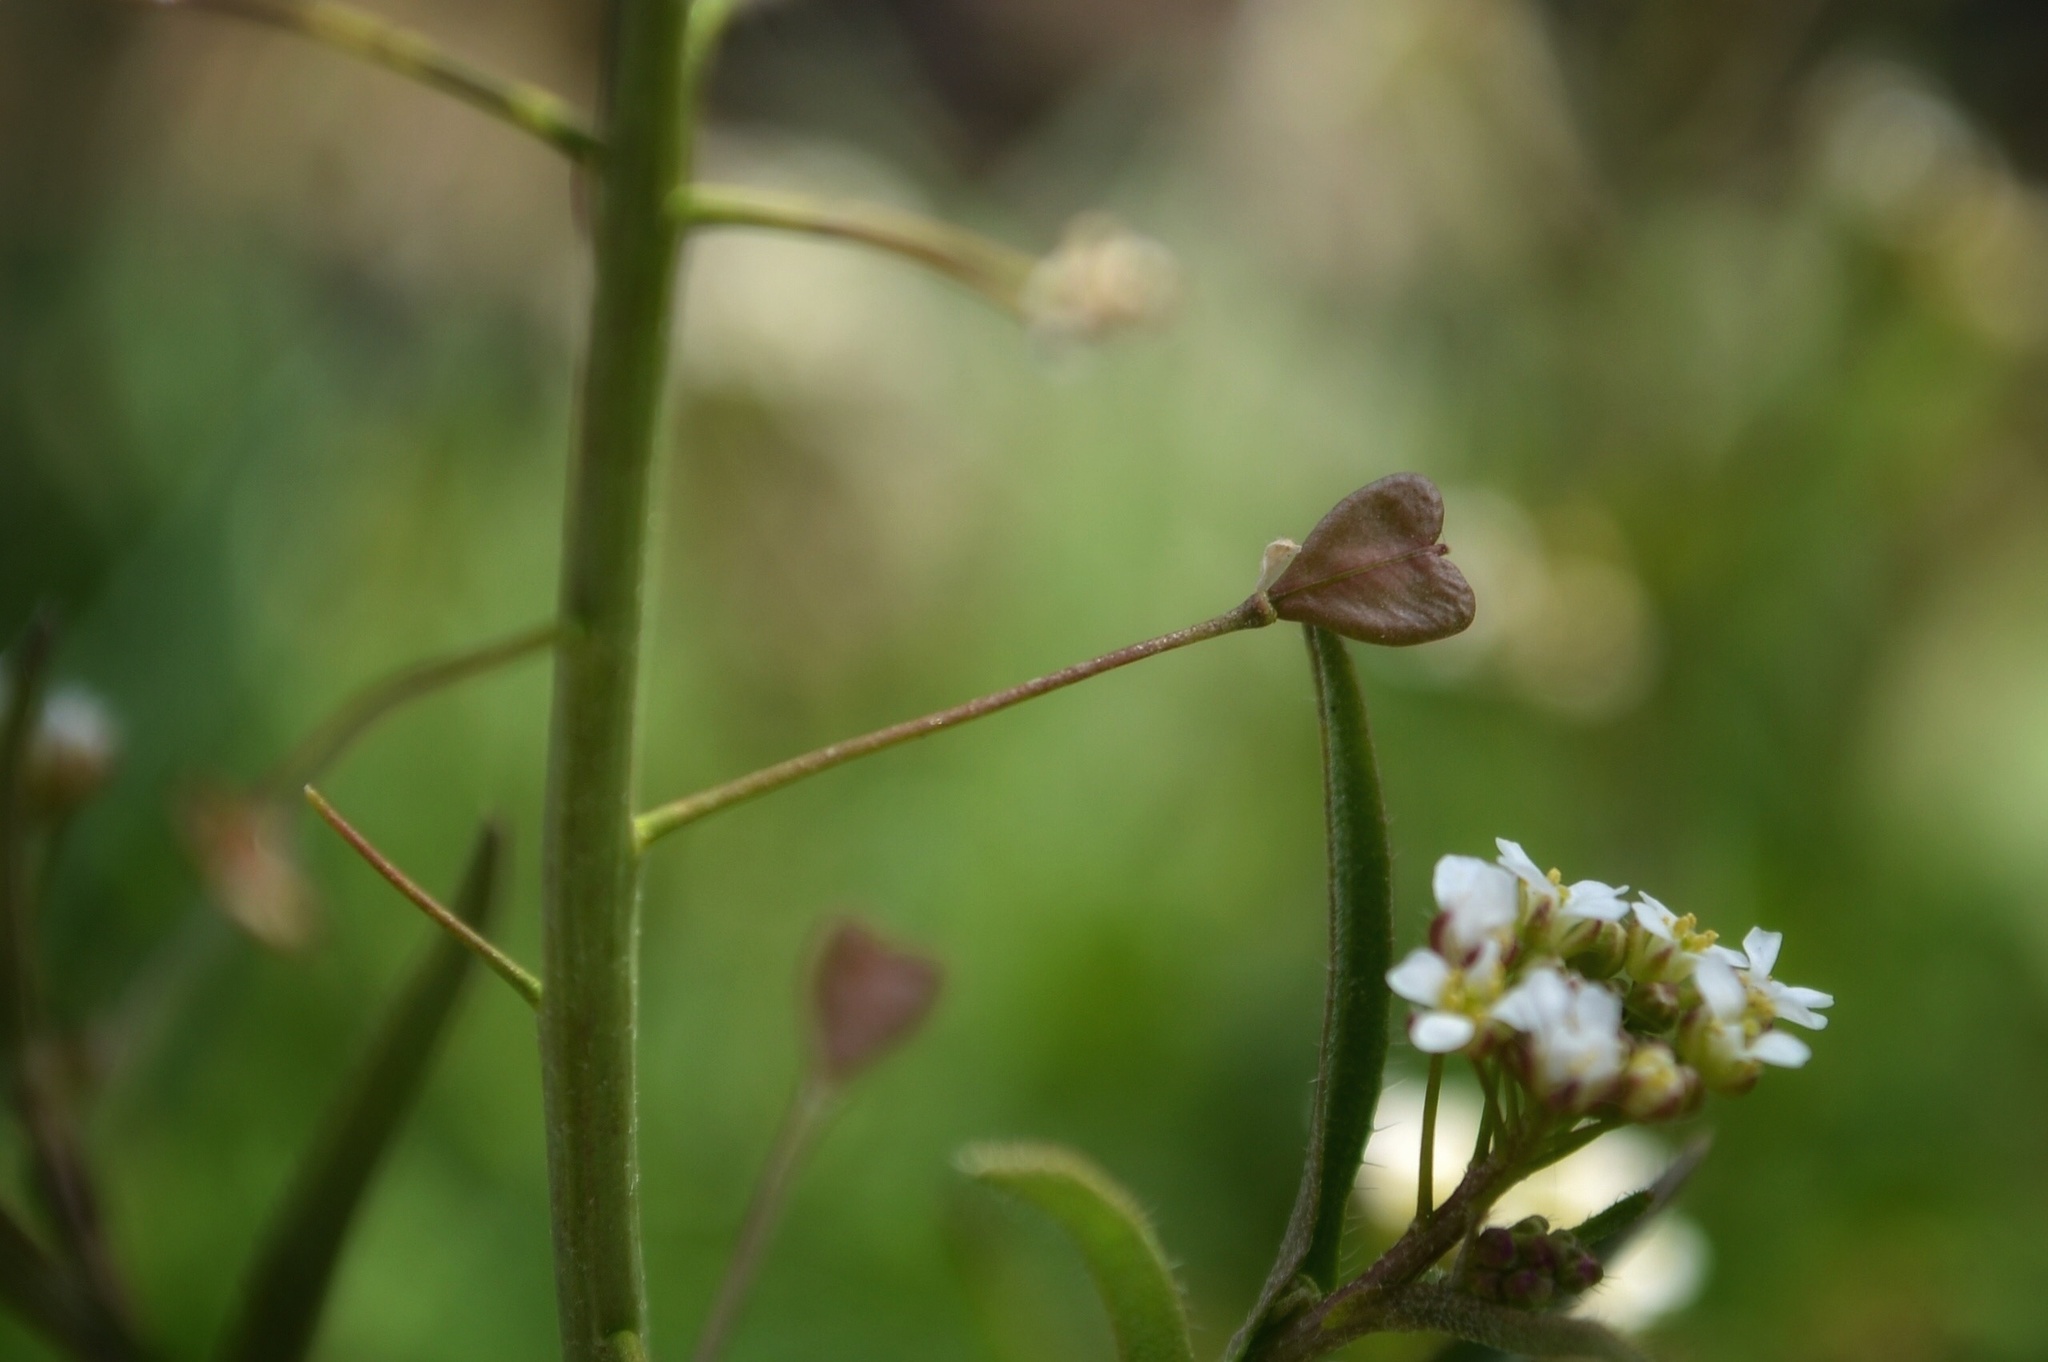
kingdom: Plantae
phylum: Tracheophyta
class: Magnoliopsida
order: Brassicales
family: Brassicaceae
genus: Capsella
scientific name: Capsella bursa-pastoris
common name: Shepherd's purse
